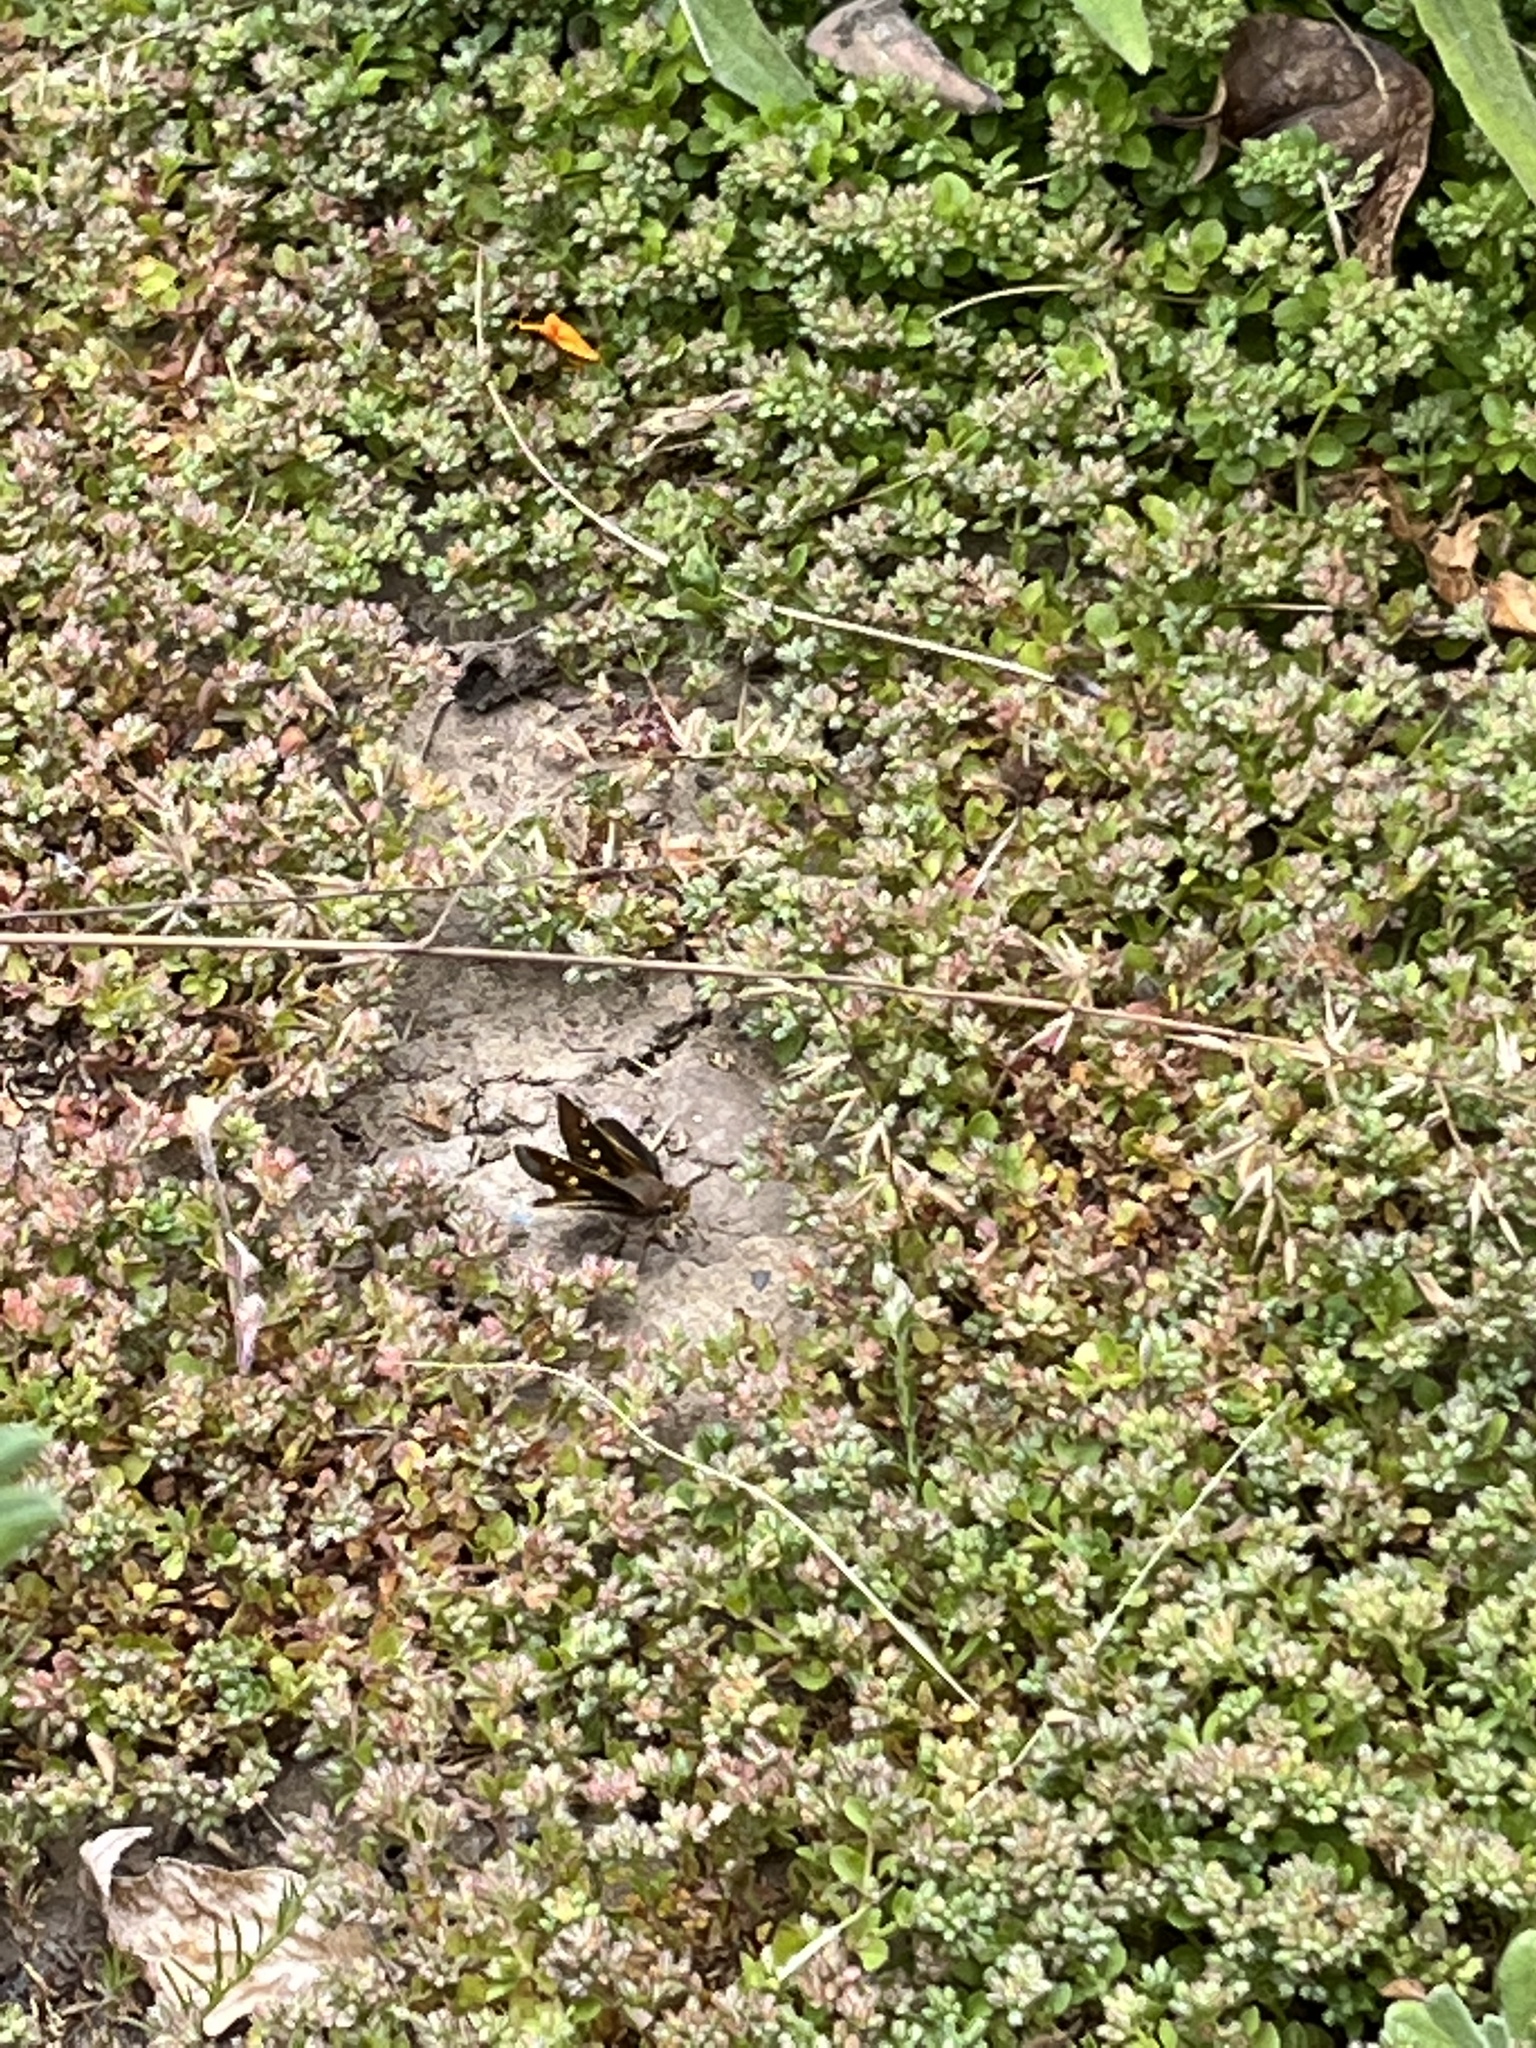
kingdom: Animalia
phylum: Arthropoda
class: Insecta
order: Lepidoptera
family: Hesperiidae
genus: Lon
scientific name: Lon melane
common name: Umber skipper
